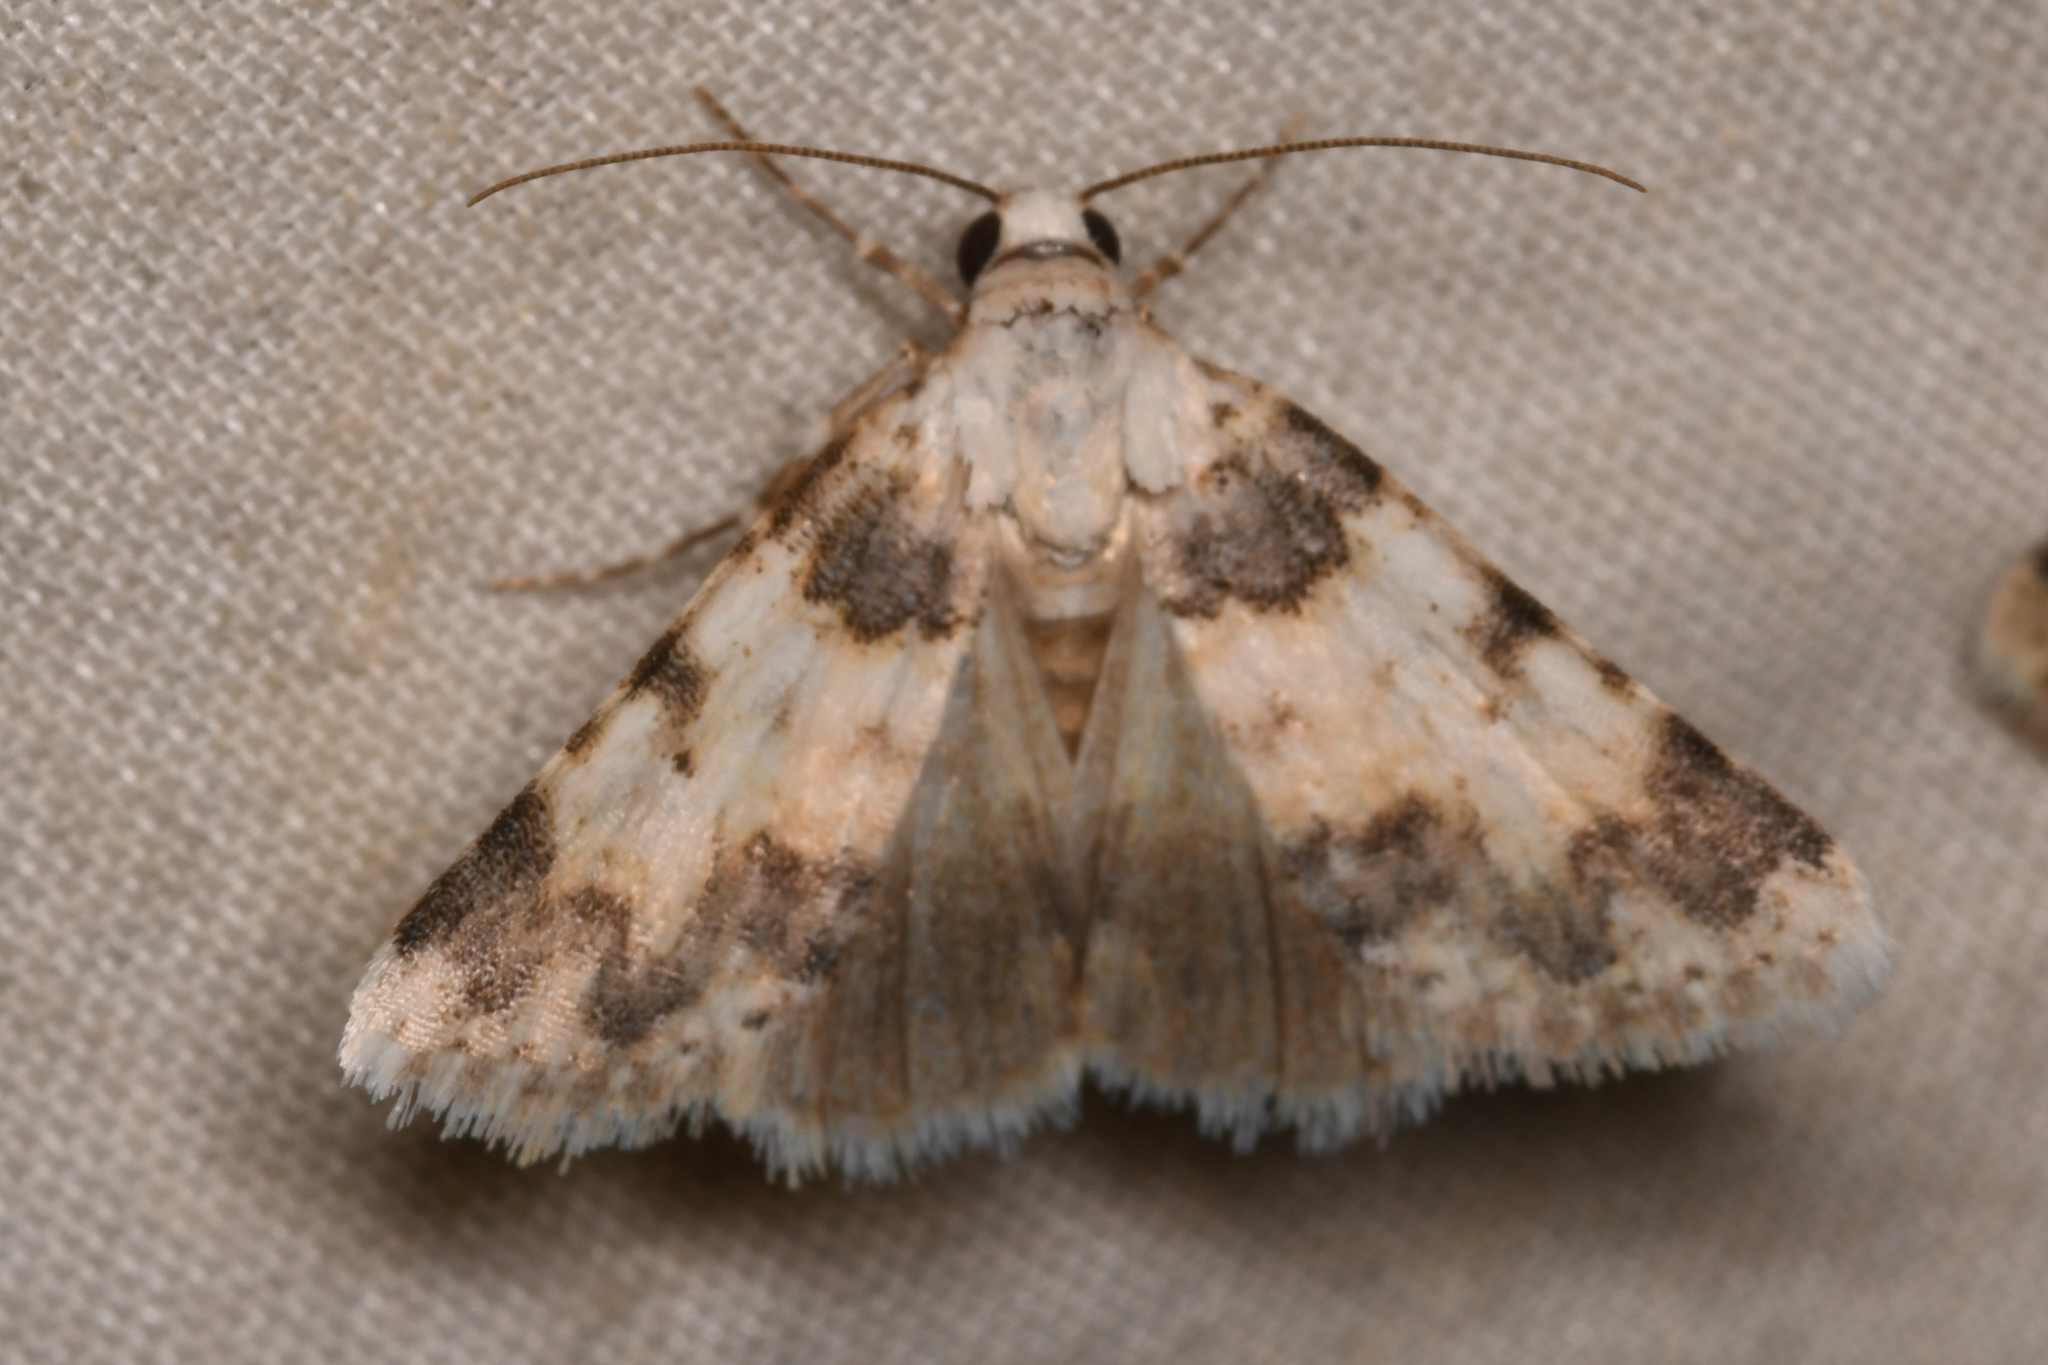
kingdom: Animalia
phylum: Arthropoda
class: Insecta
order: Lepidoptera
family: Noctuidae
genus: Allerastria
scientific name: Allerastria albiciliatus
